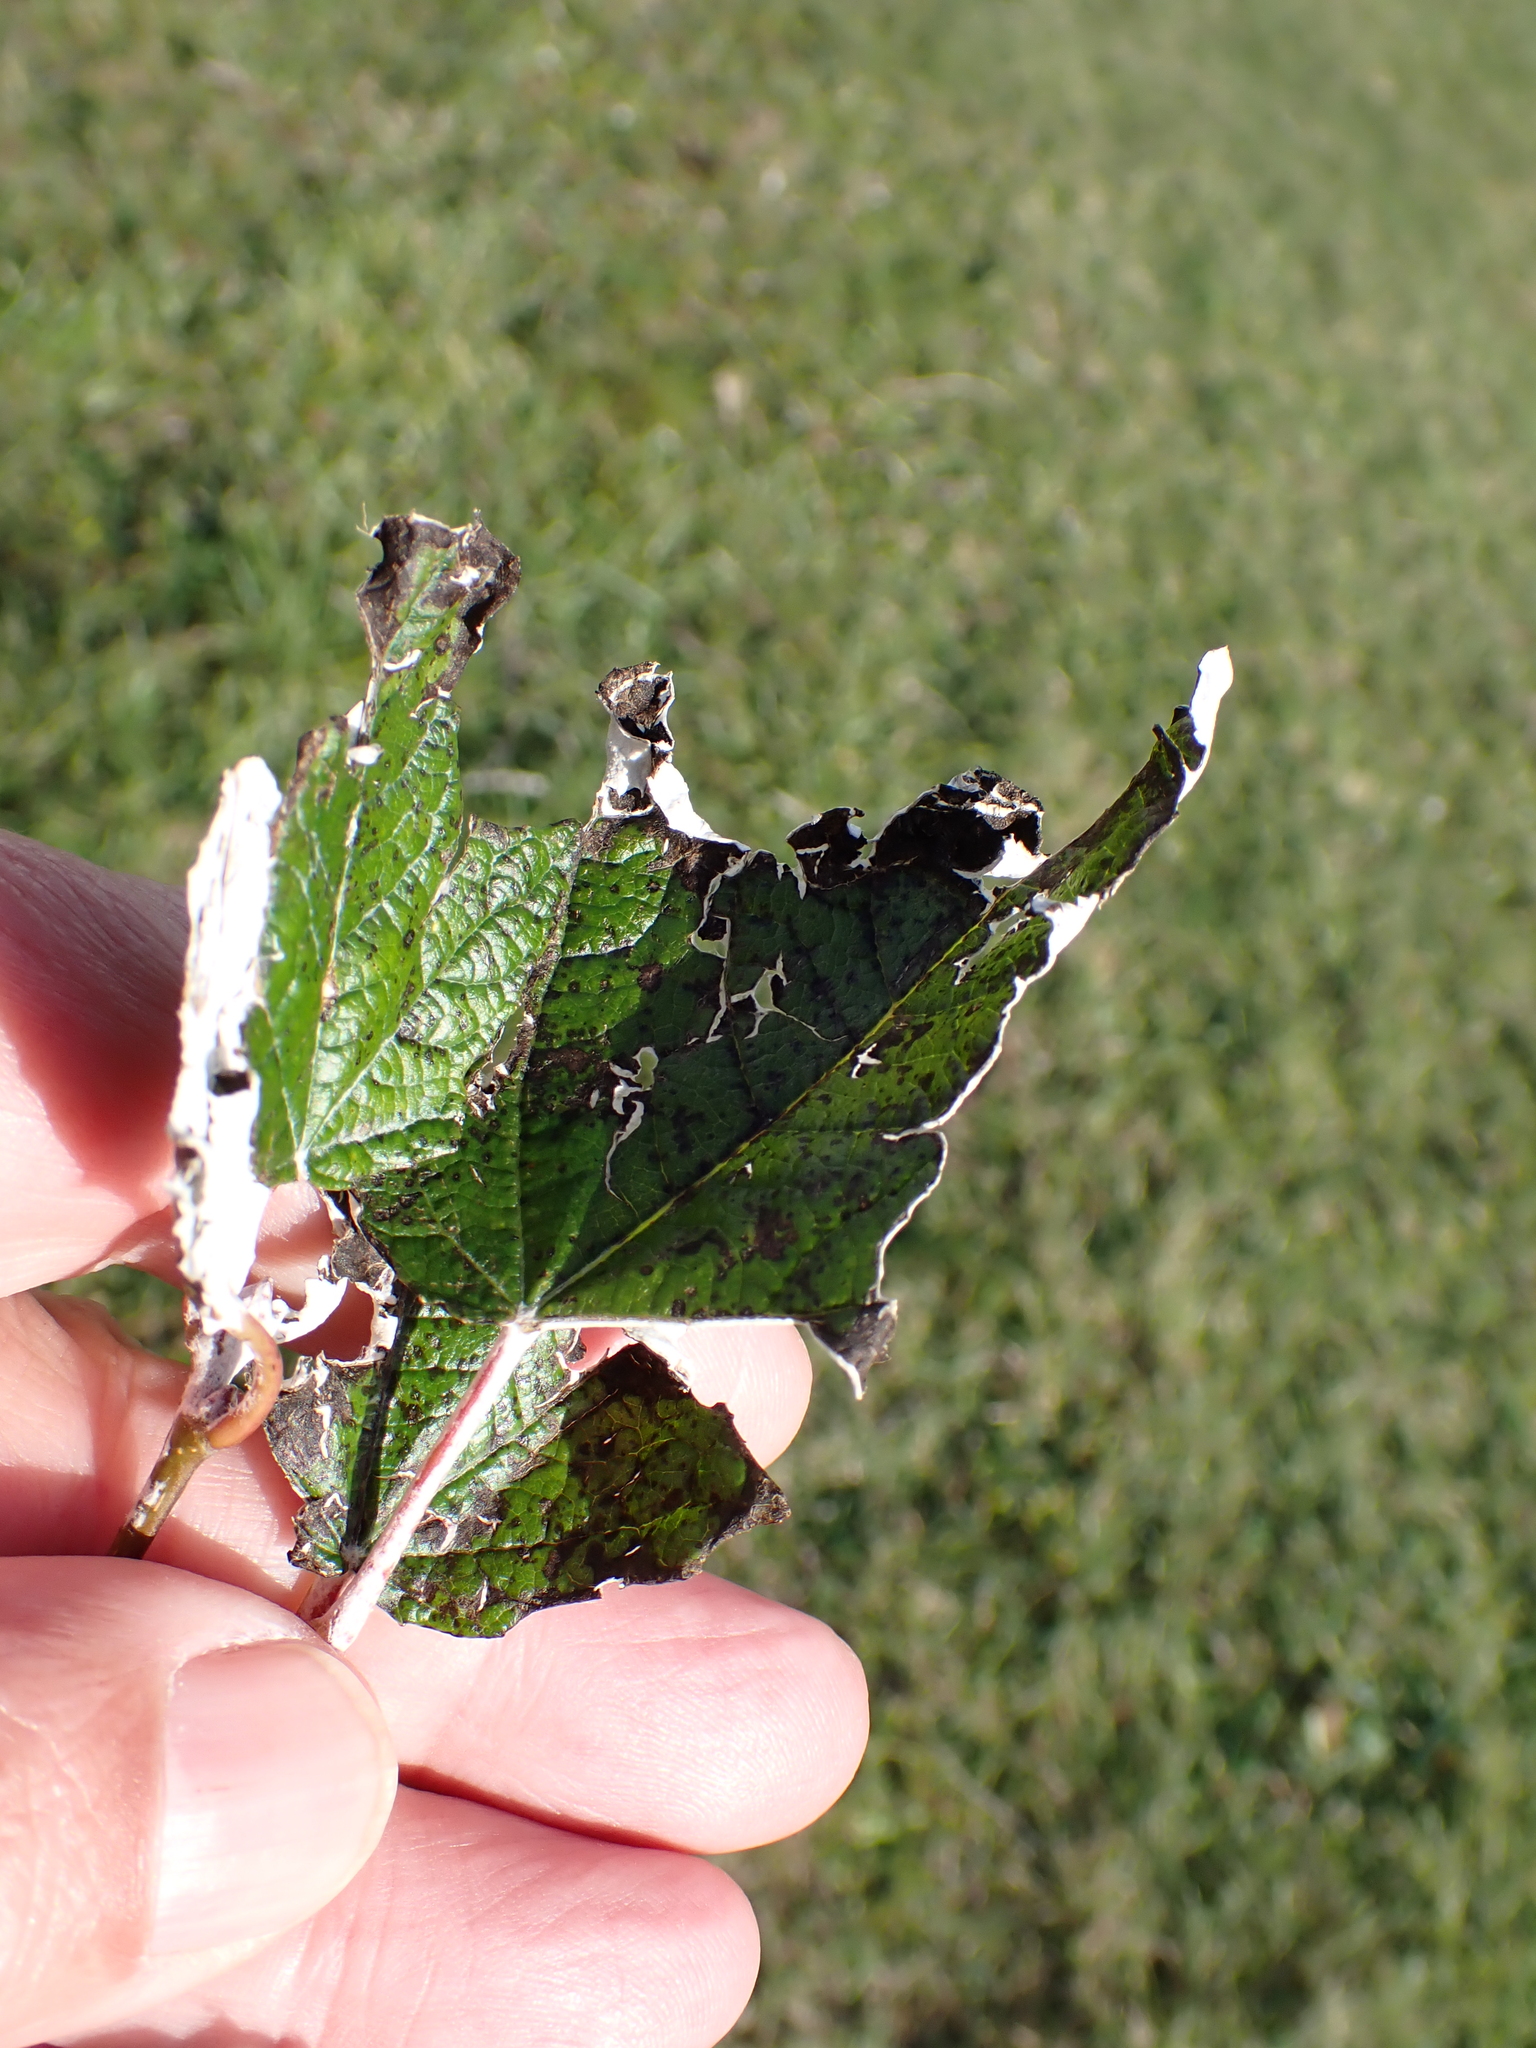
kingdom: Plantae
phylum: Tracheophyta
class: Magnoliopsida
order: Malpighiales
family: Salicaceae
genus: Populus
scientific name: Populus alba
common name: White poplar
